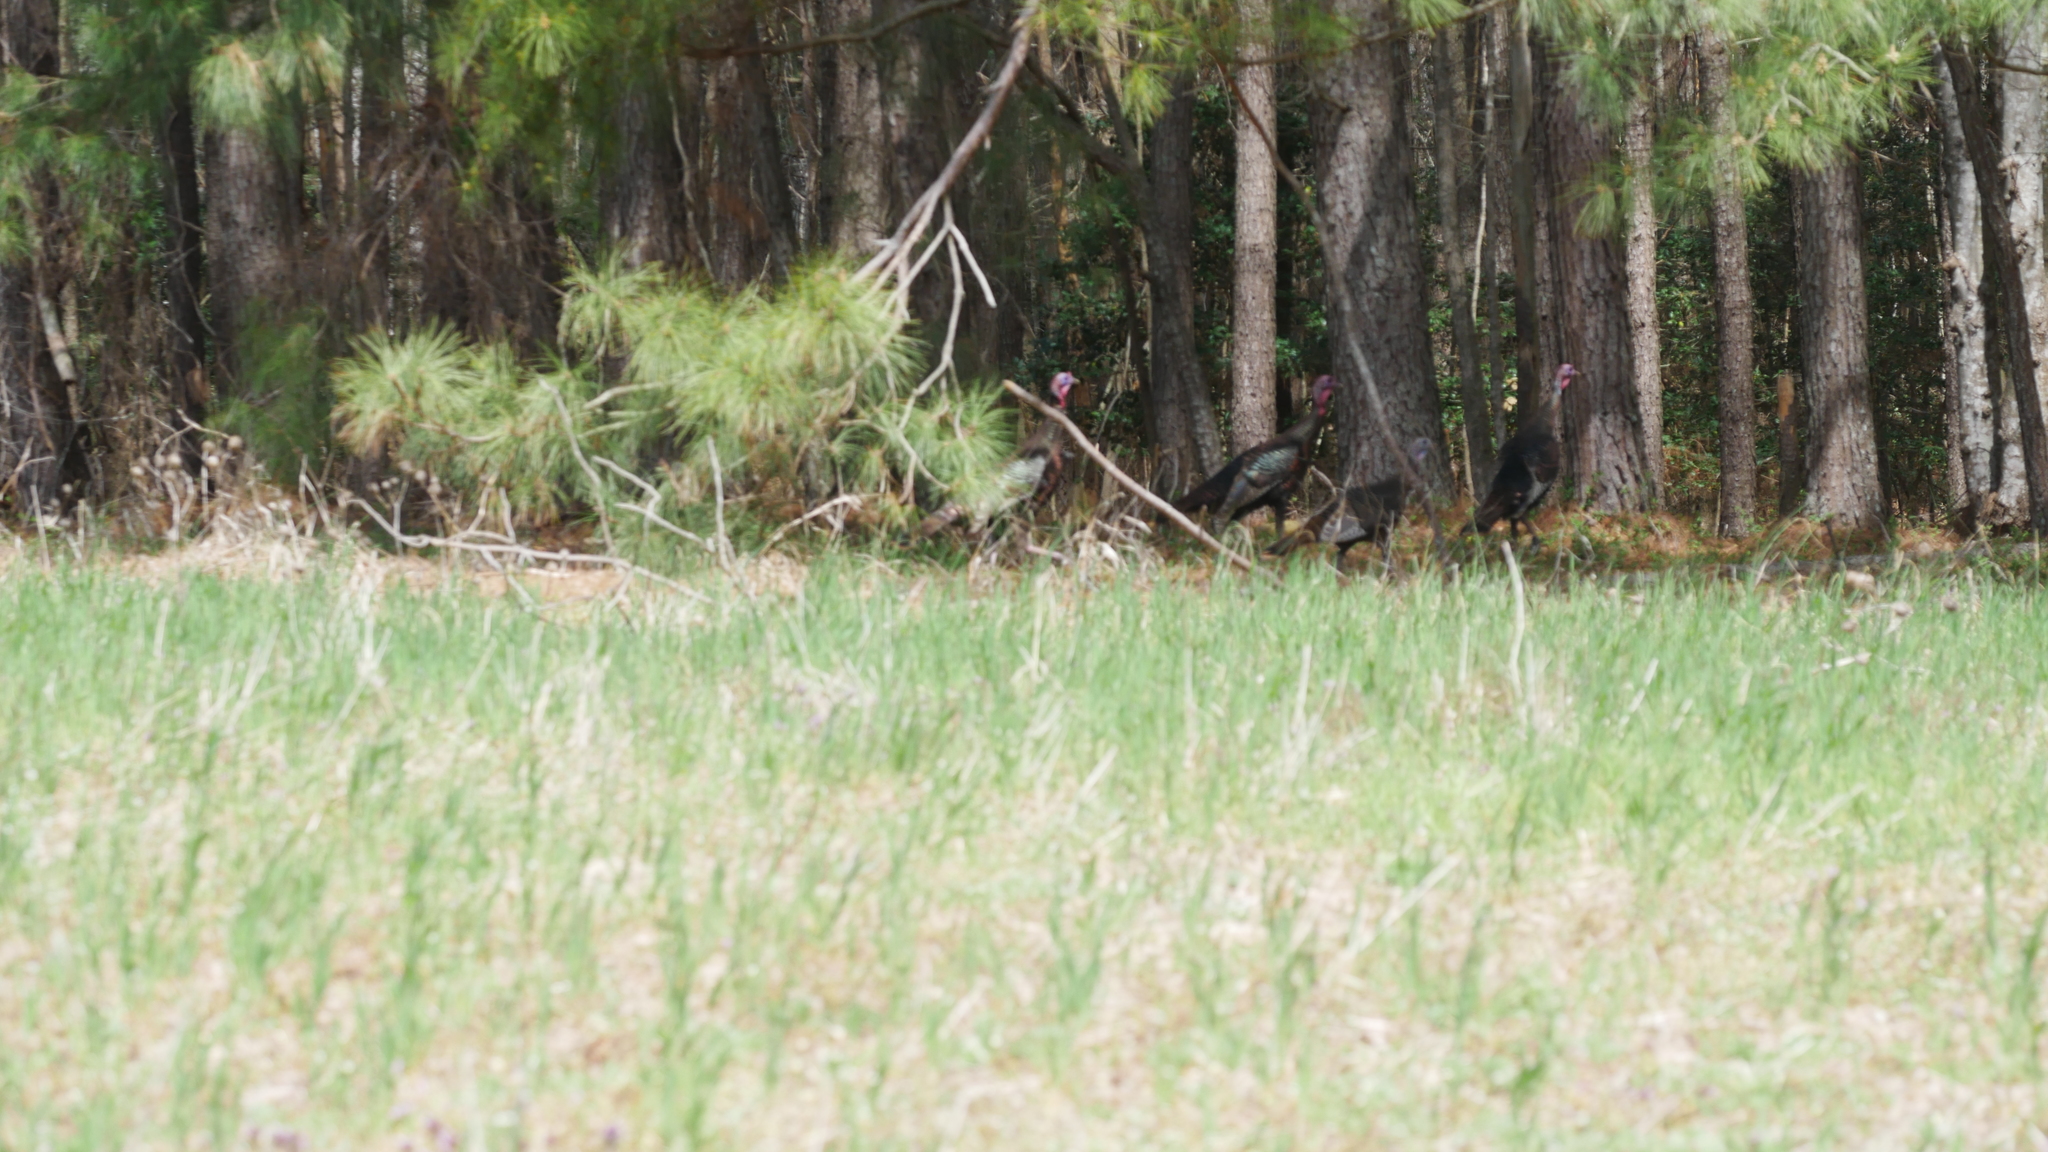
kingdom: Animalia
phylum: Chordata
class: Aves
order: Galliformes
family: Phasianidae
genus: Meleagris
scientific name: Meleagris gallopavo
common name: Wild turkey
